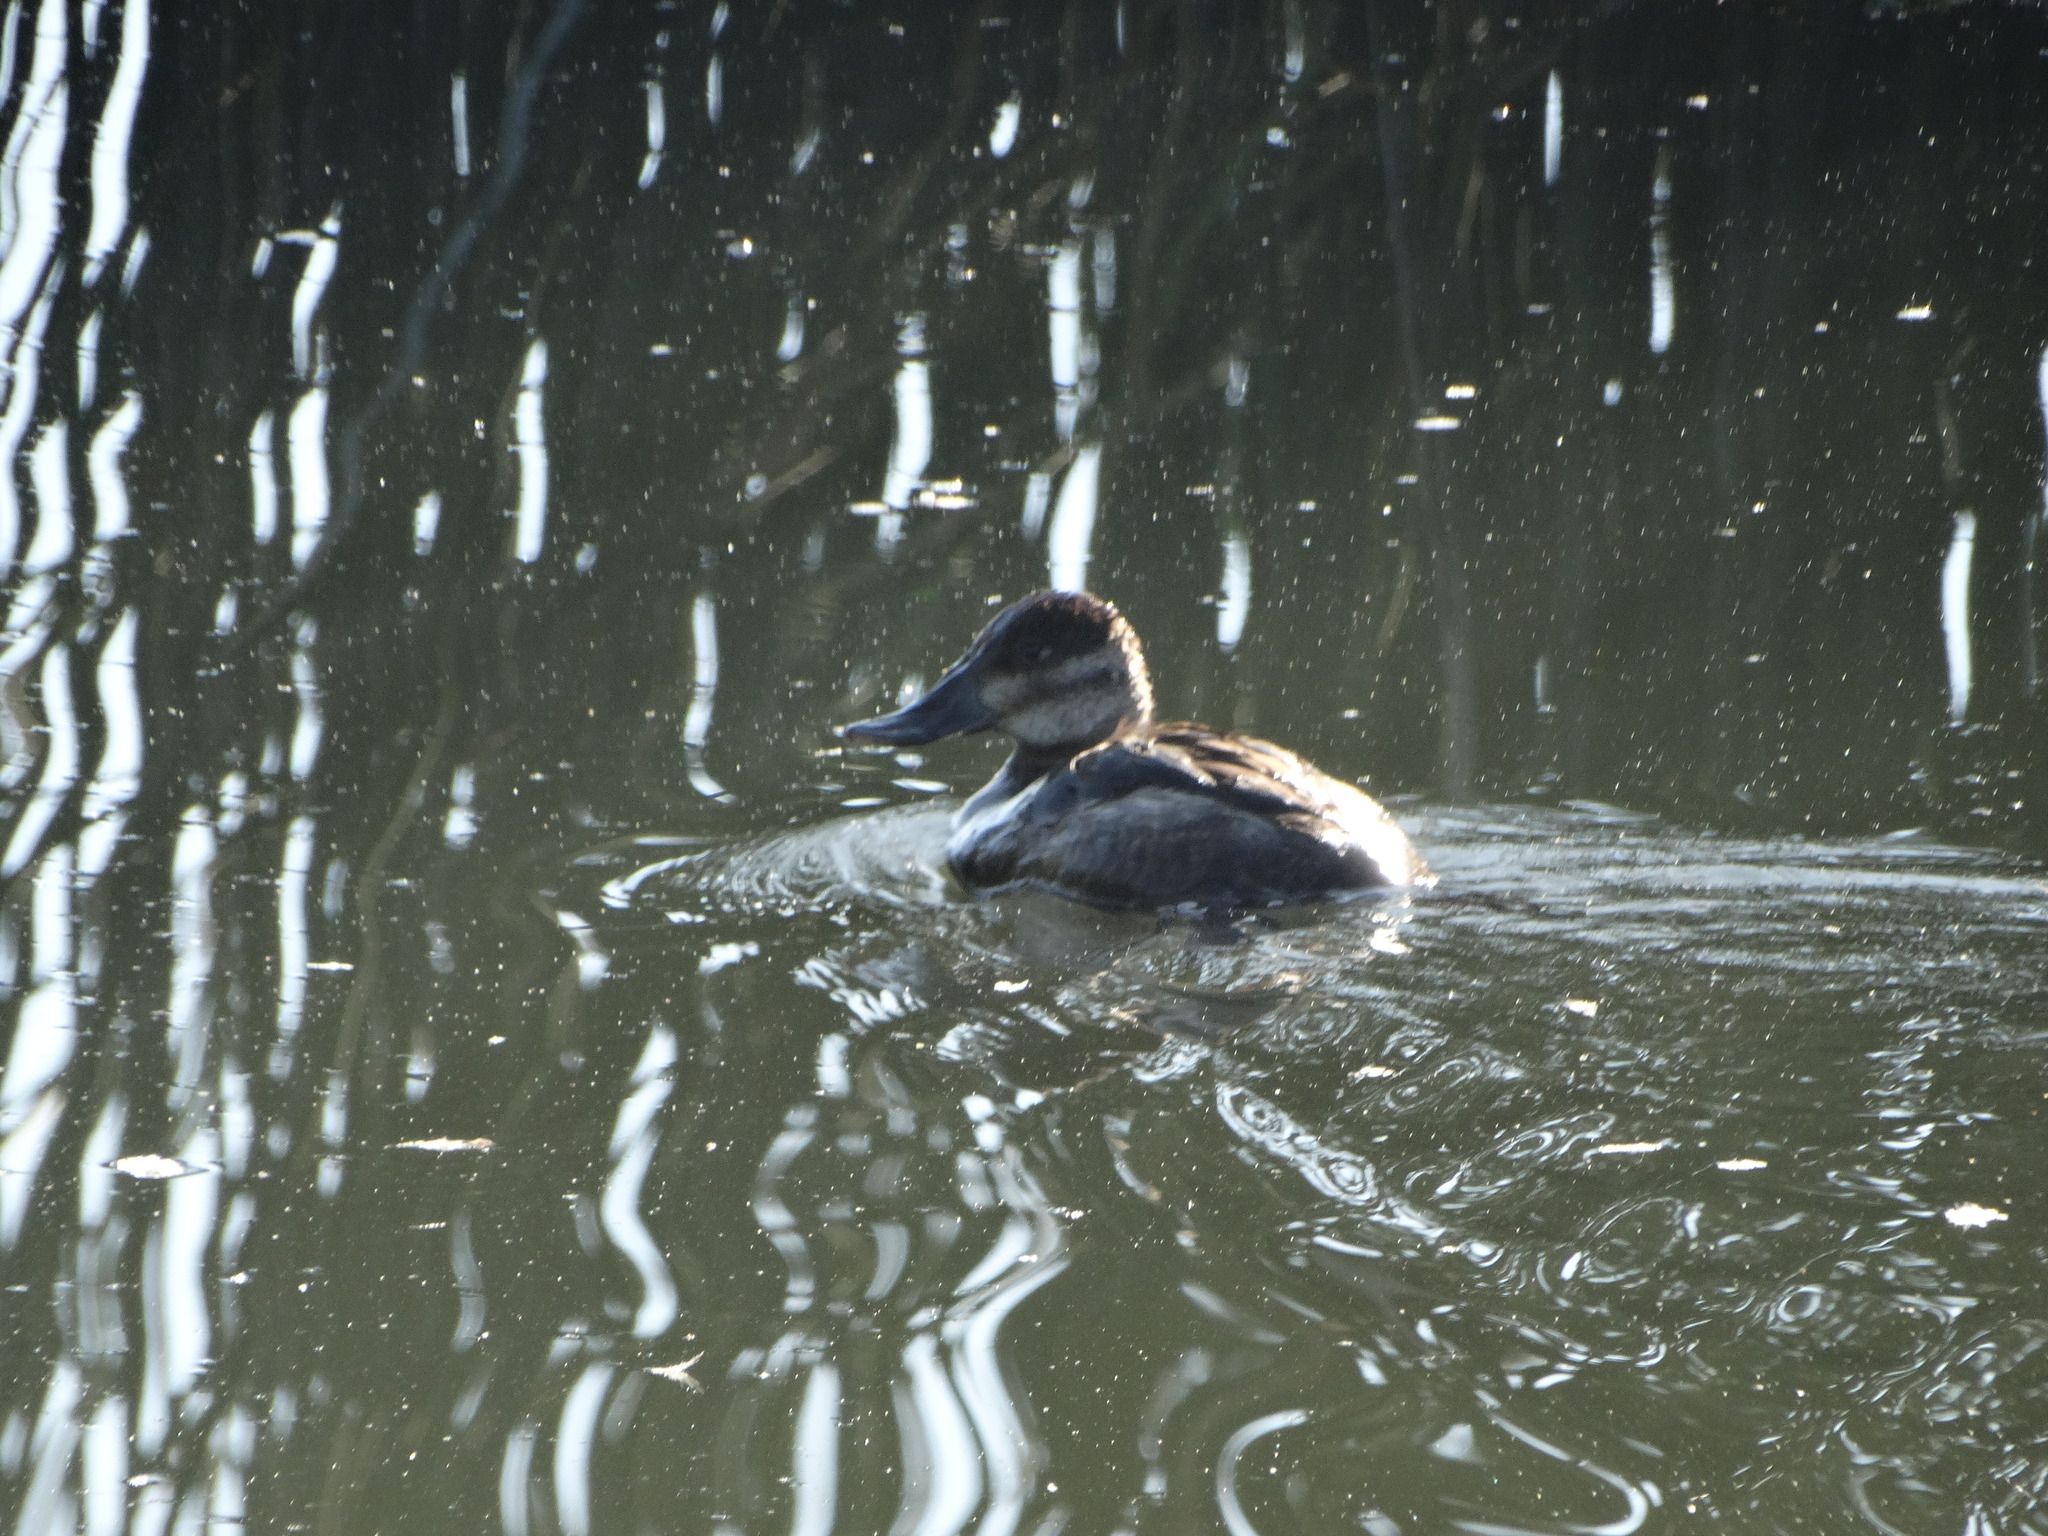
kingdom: Animalia
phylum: Chordata
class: Aves
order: Anseriformes
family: Anatidae
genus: Oxyura
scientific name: Oxyura jamaicensis
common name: Ruddy duck
